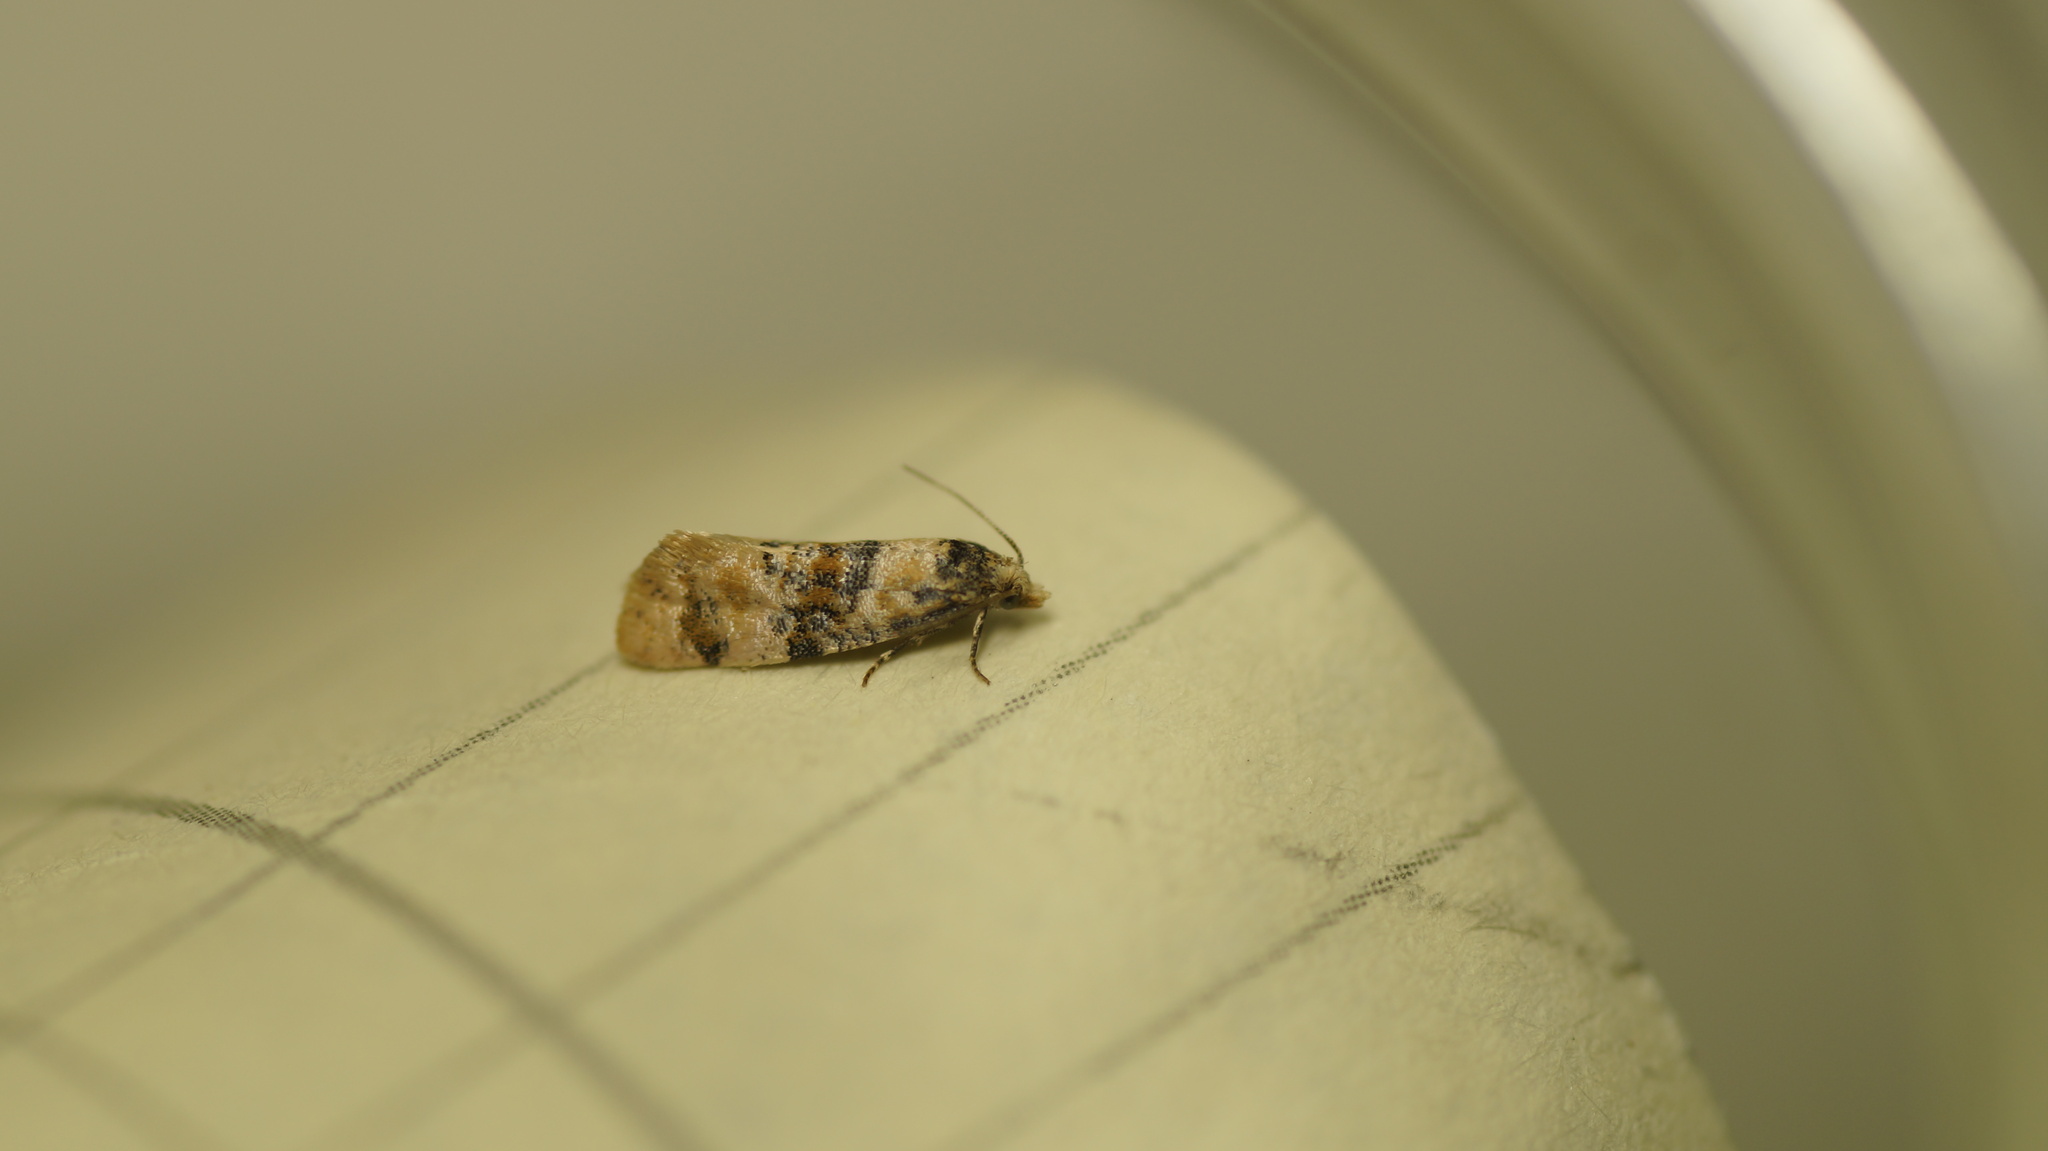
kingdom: Animalia
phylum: Arthropoda
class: Insecta
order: Lepidoptera
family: Tortricidae
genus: Thyraylia
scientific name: Thyraylia nana
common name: Birch conch
